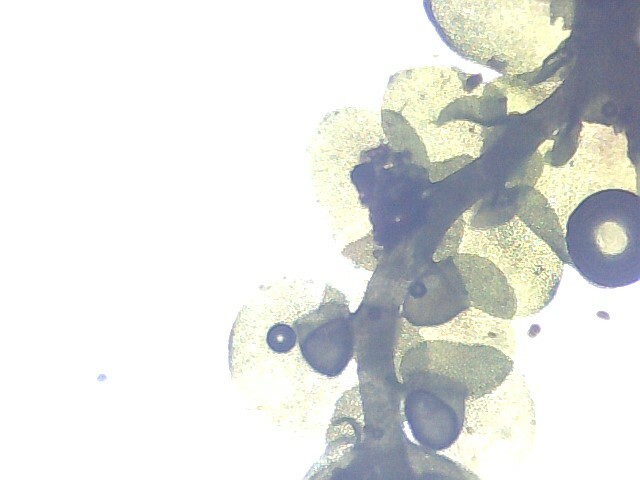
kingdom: Plantae
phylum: Marchantiophyta
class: Jungermanniopsida
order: Porellales
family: Frullaniaceae
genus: Frullania
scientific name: Frullania dilatata
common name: Dilated scalewort
